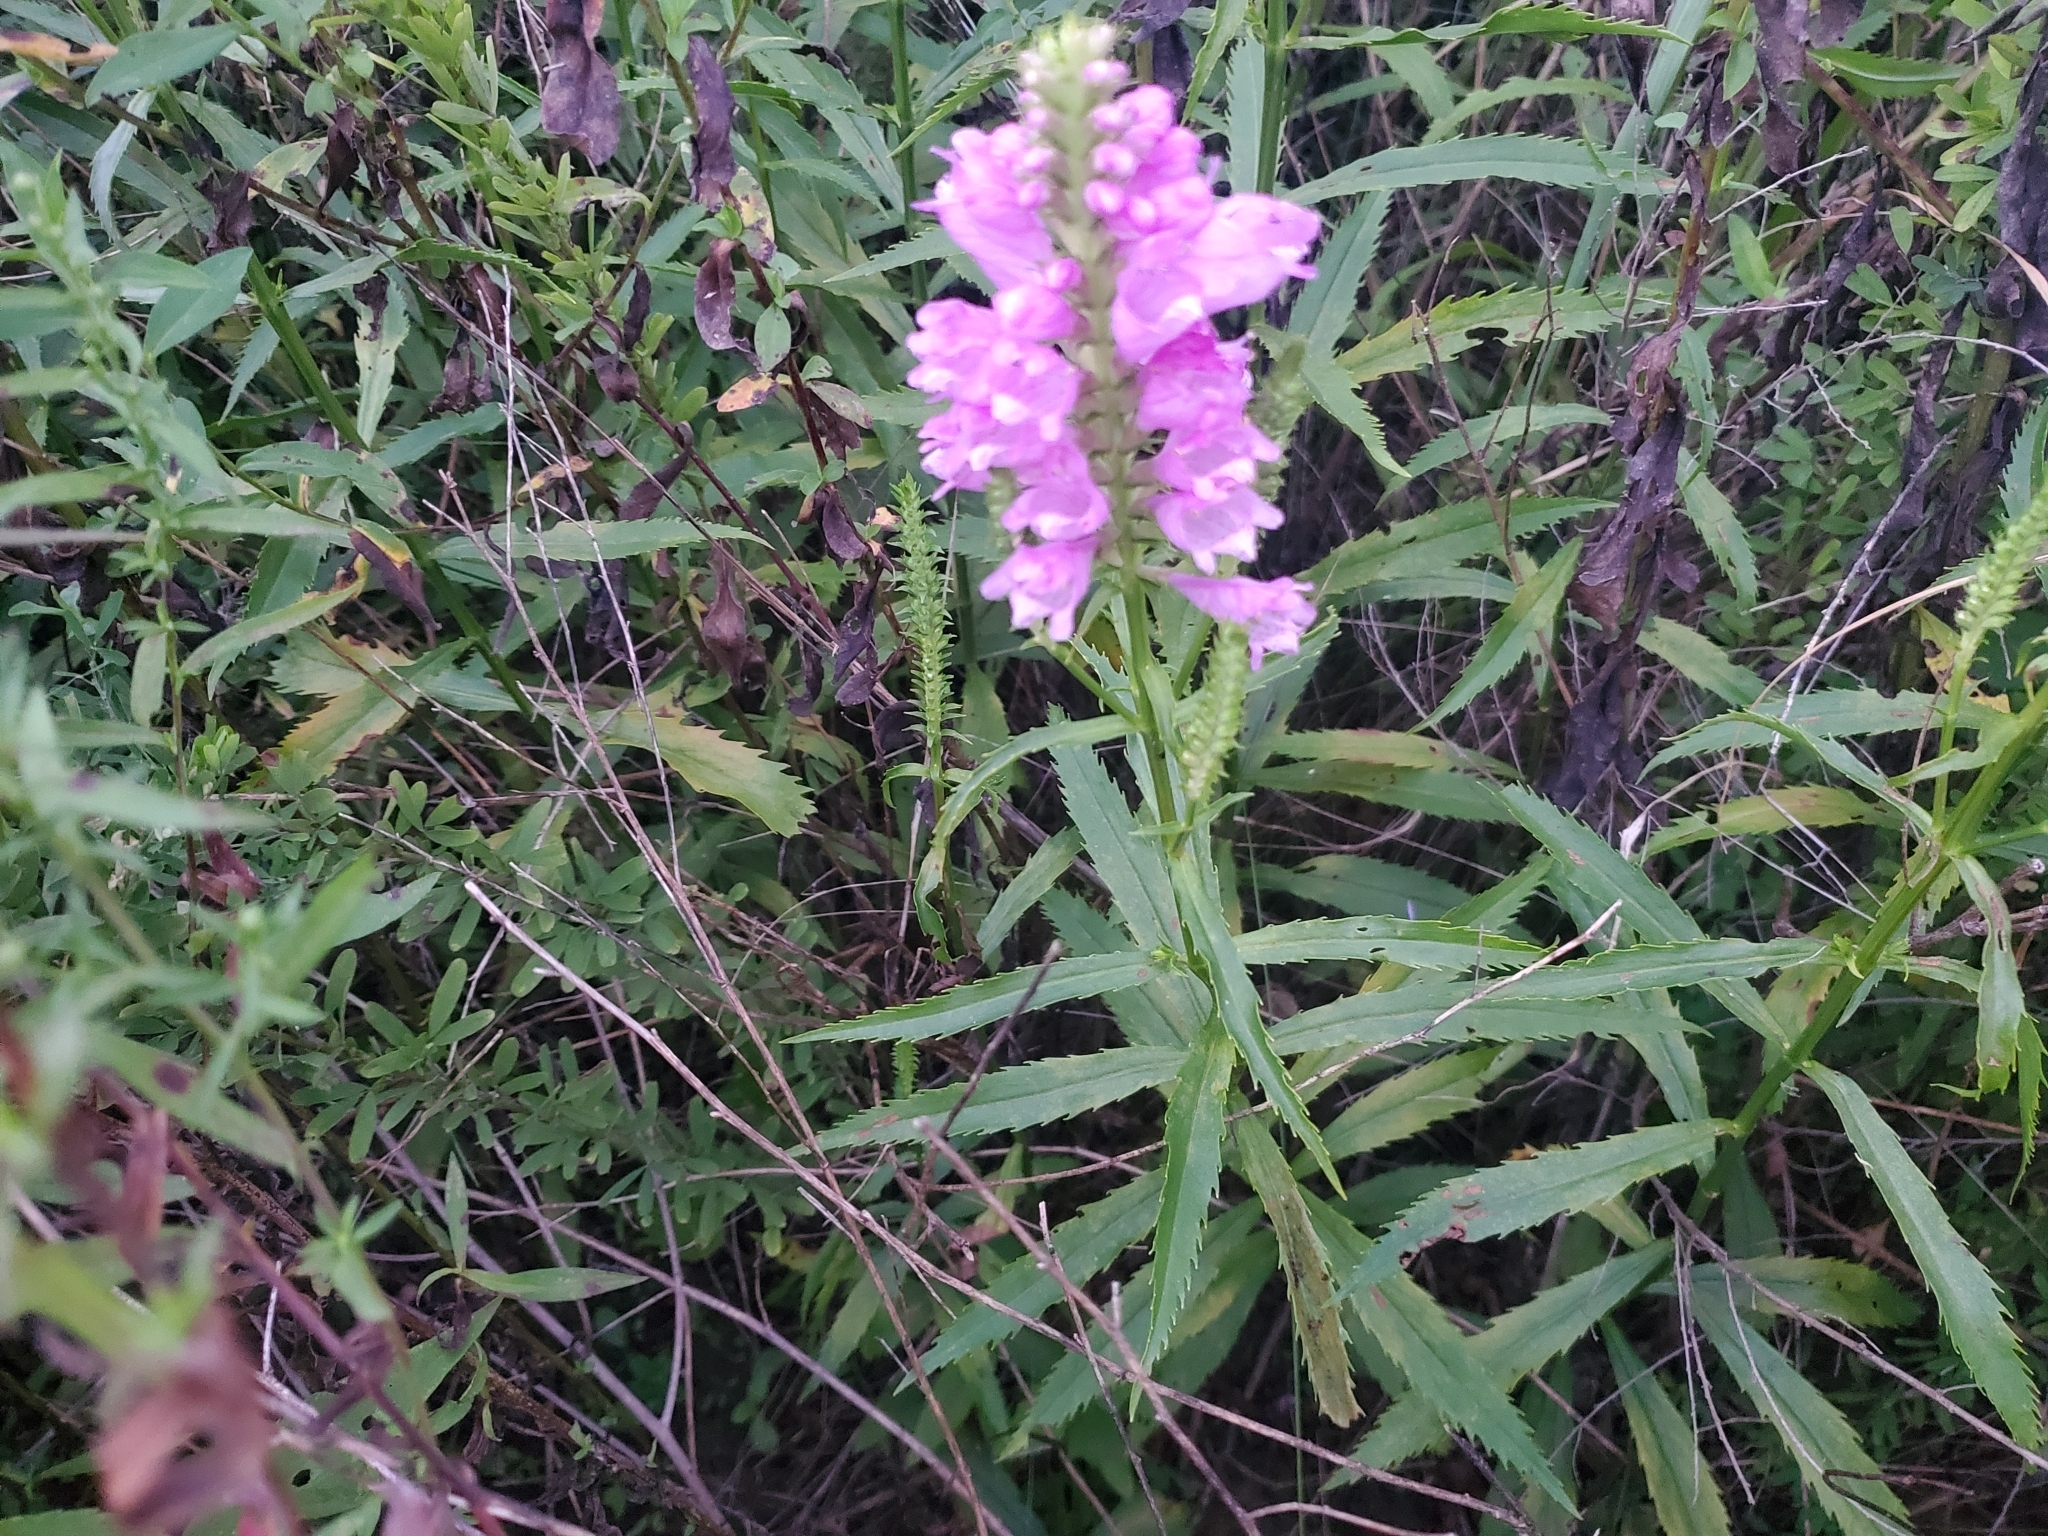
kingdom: Plantae
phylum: Tracheophyta
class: Magnoliopsida
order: Lamiales
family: Lamiaceae
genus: Physostegia
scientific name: Physostegia virginiana
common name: Obedient-plant
